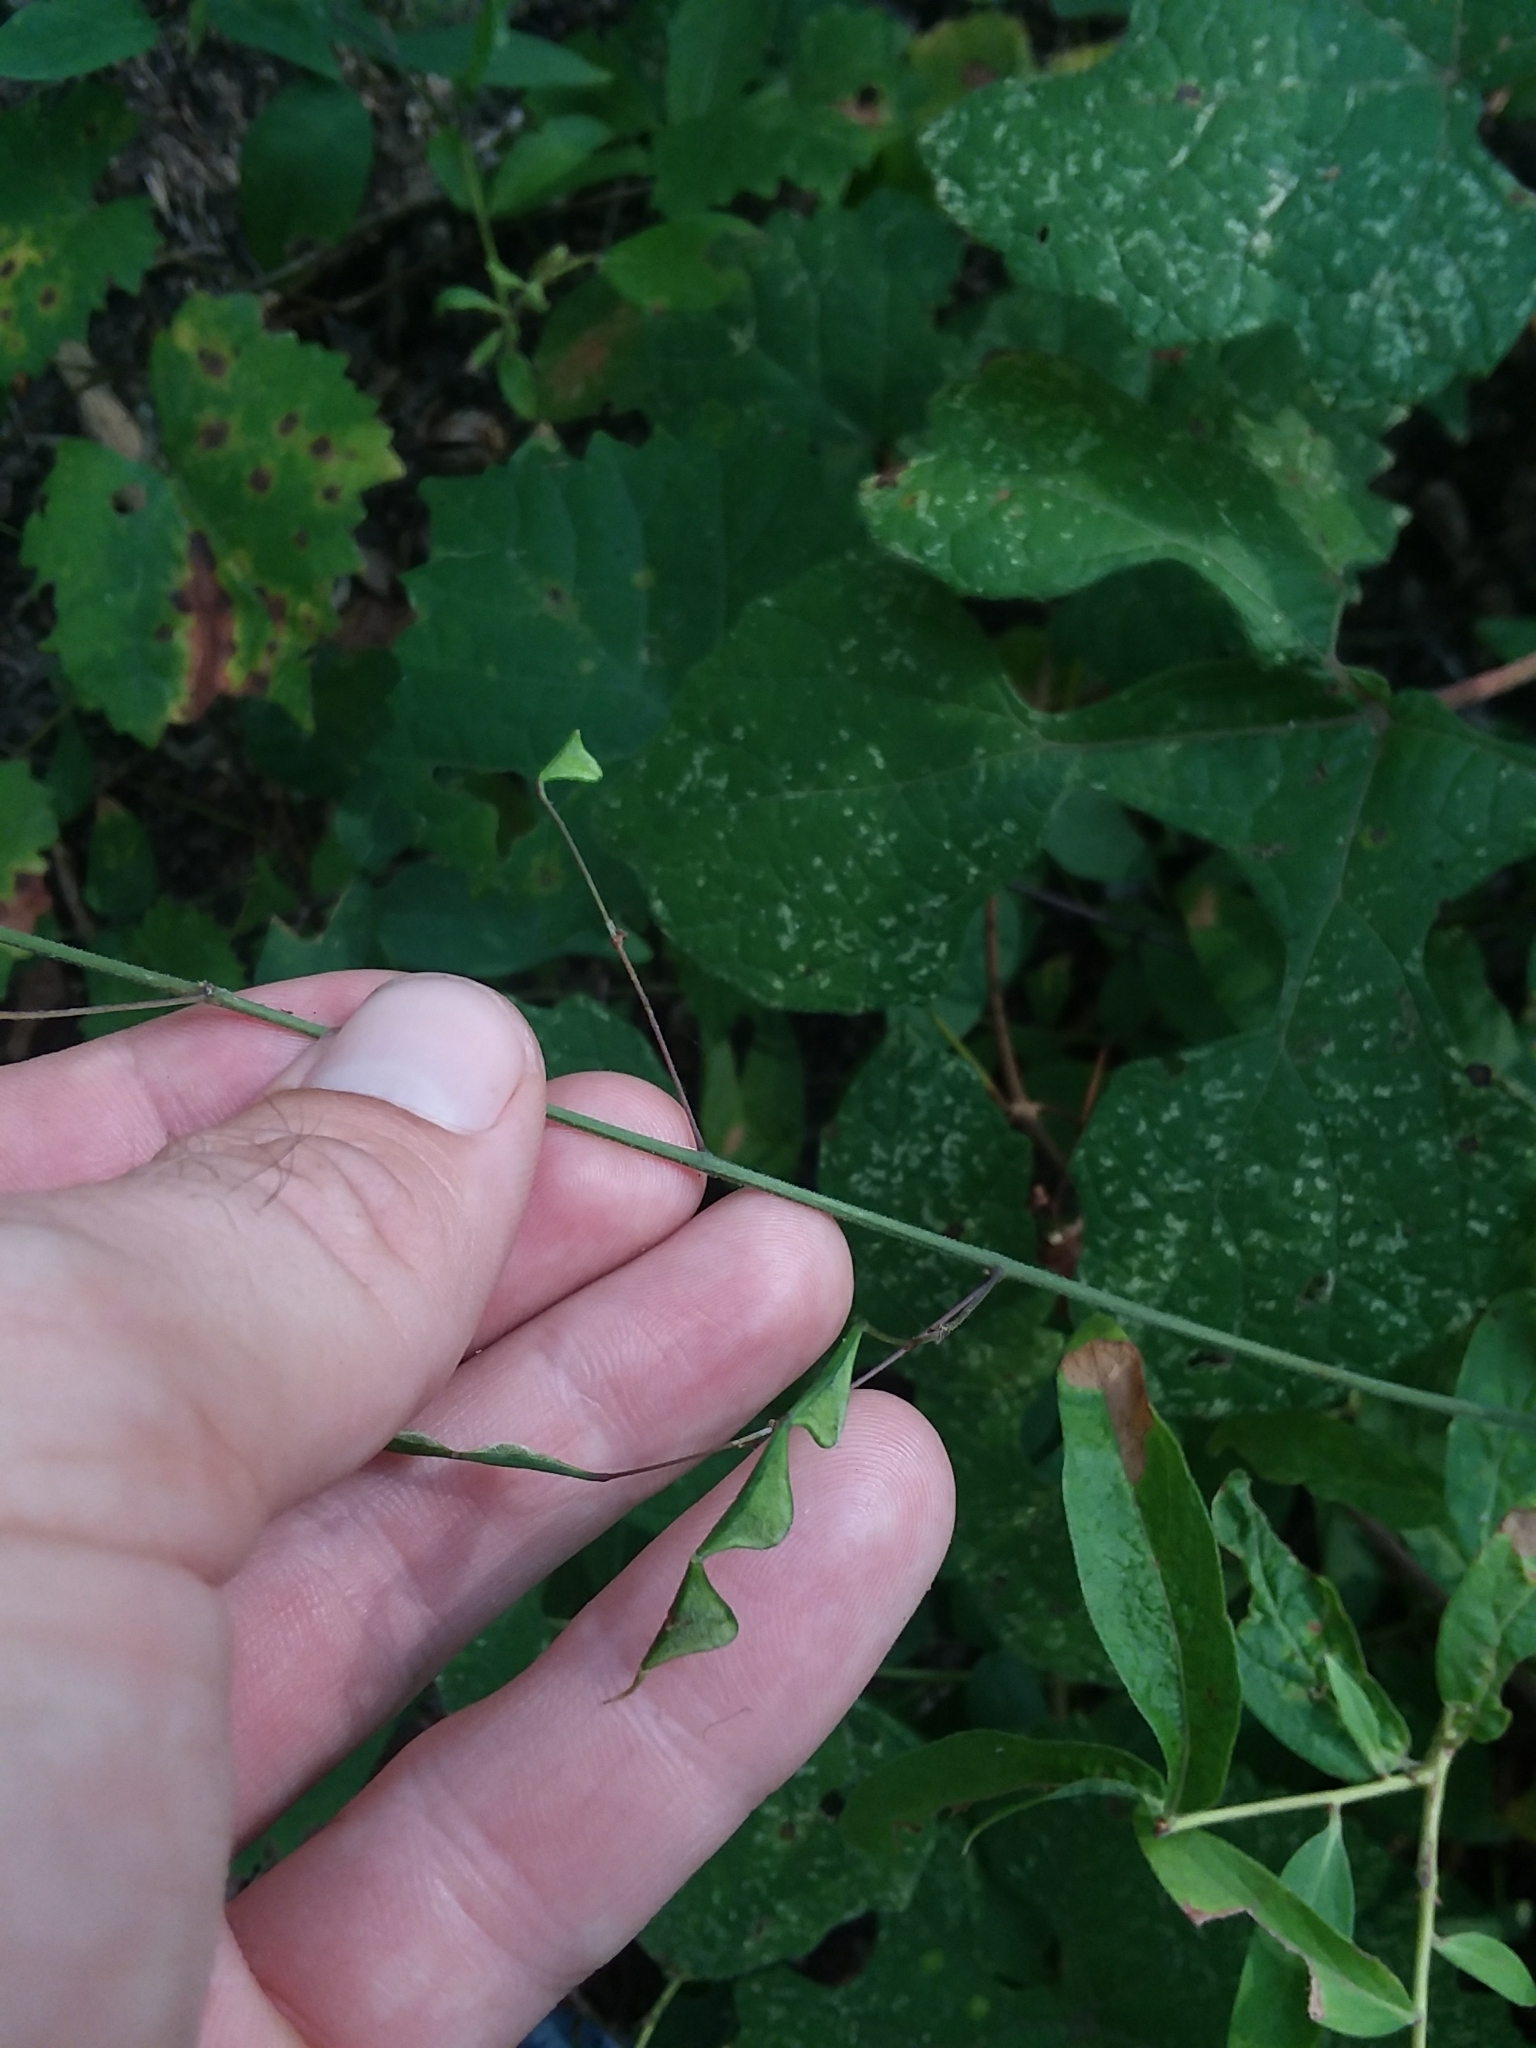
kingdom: Plantae
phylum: Tracheophyta
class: Magnoliopsida
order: Fabales
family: Fabaceae
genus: Hylodesmum
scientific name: Hylodesmum nudiflorum
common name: Bare-stemmed tick-trefoil
